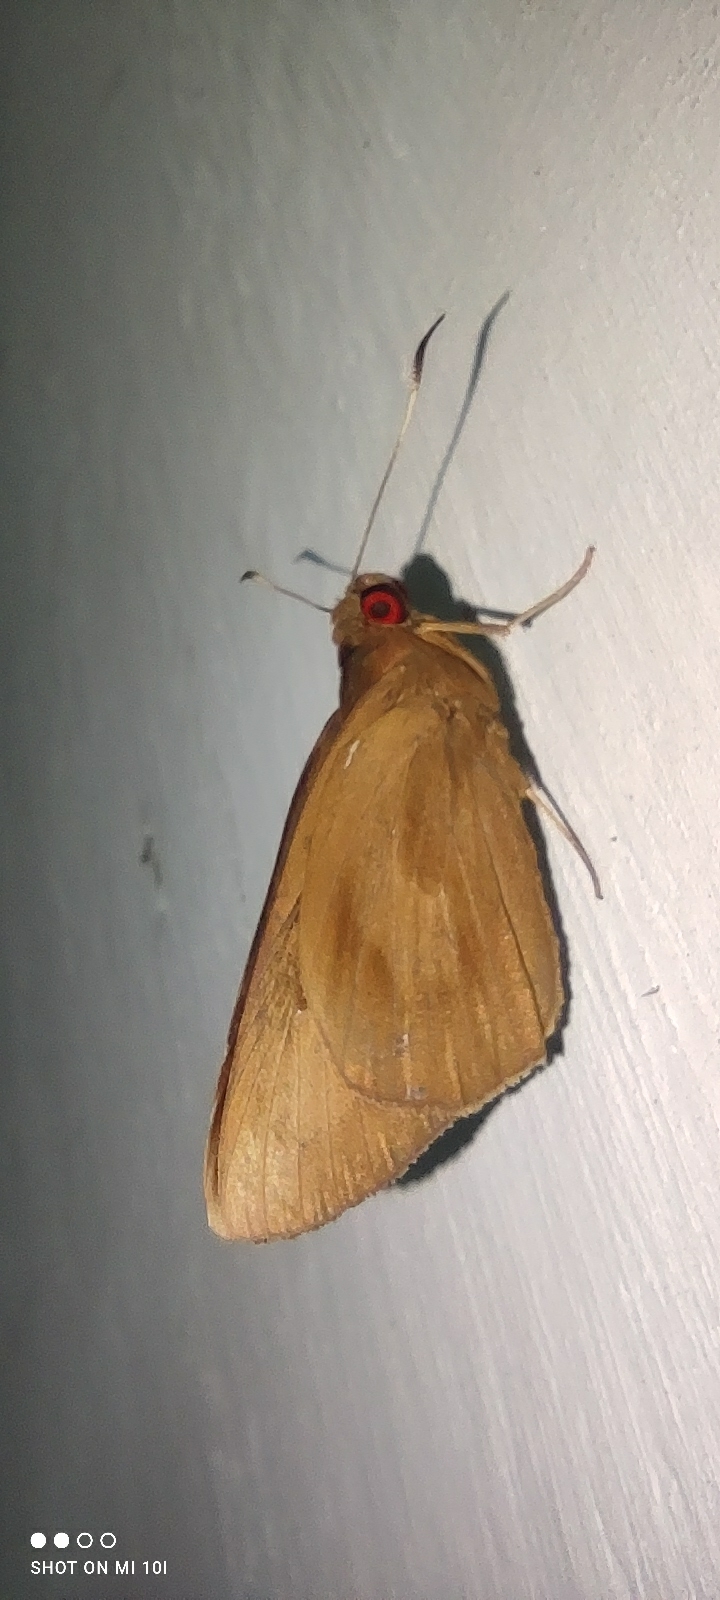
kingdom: Animalia
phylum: Arthropoda
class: Insecta
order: Lepidoptera
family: Hesperiidae
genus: Erionota
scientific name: Erionota torus
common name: Rounded palm-redeye
